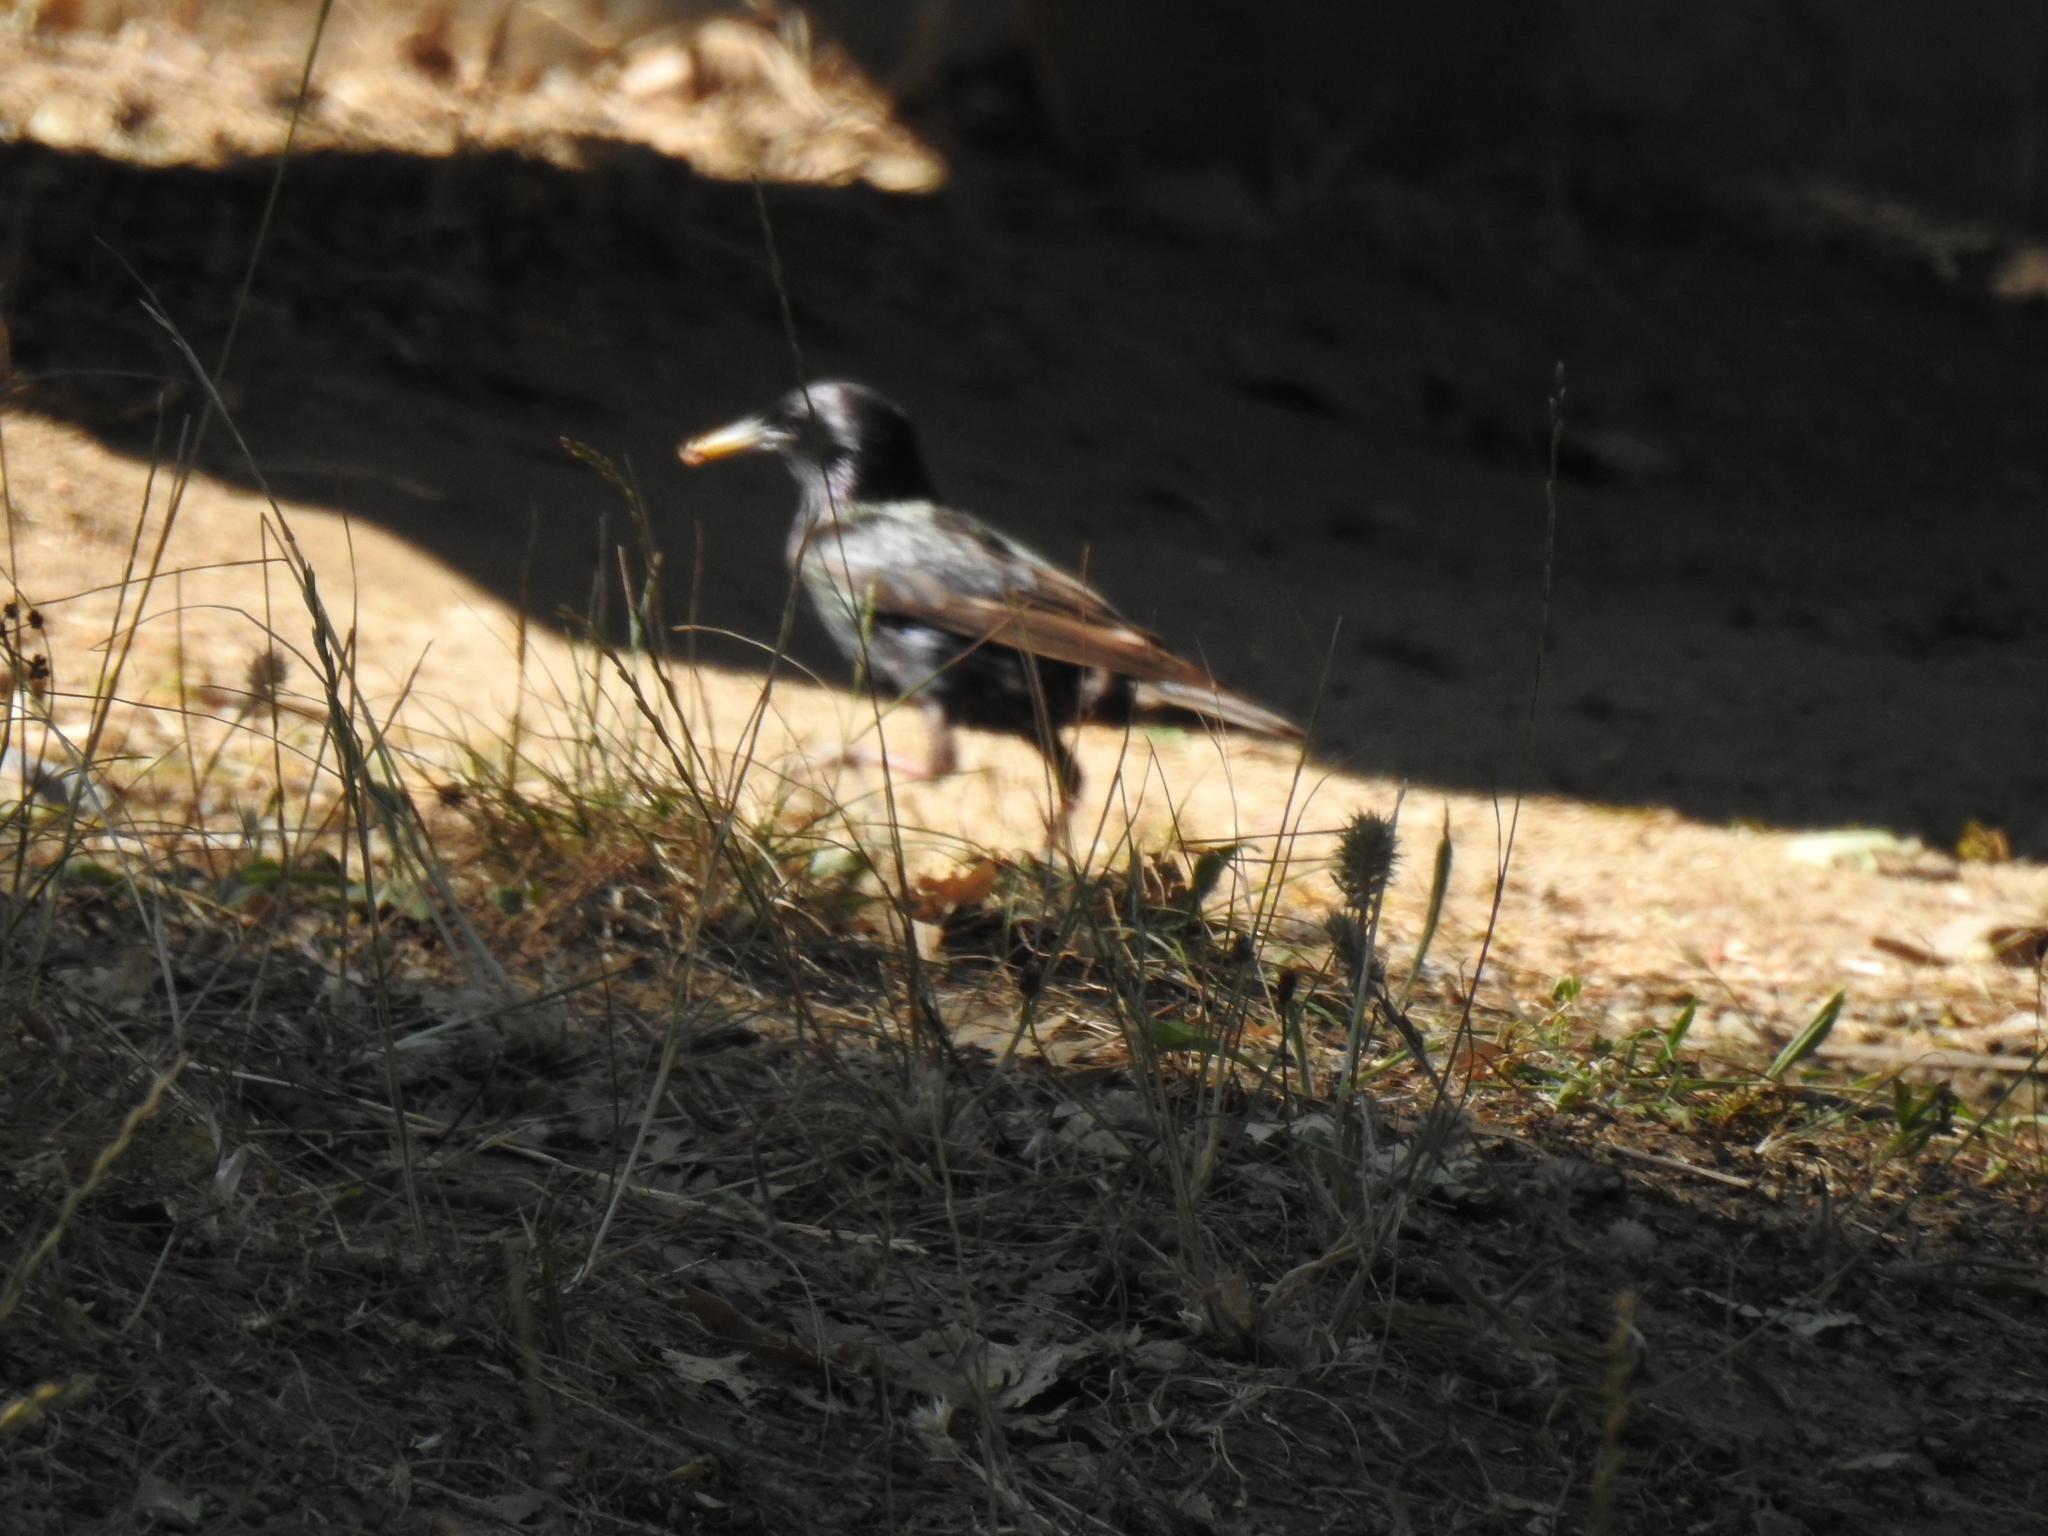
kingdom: Animalia
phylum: Chordata
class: Aves
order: Passeriformes
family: Sturnidae
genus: Sturnus
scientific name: Sturnus vulgaris
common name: Common starling
